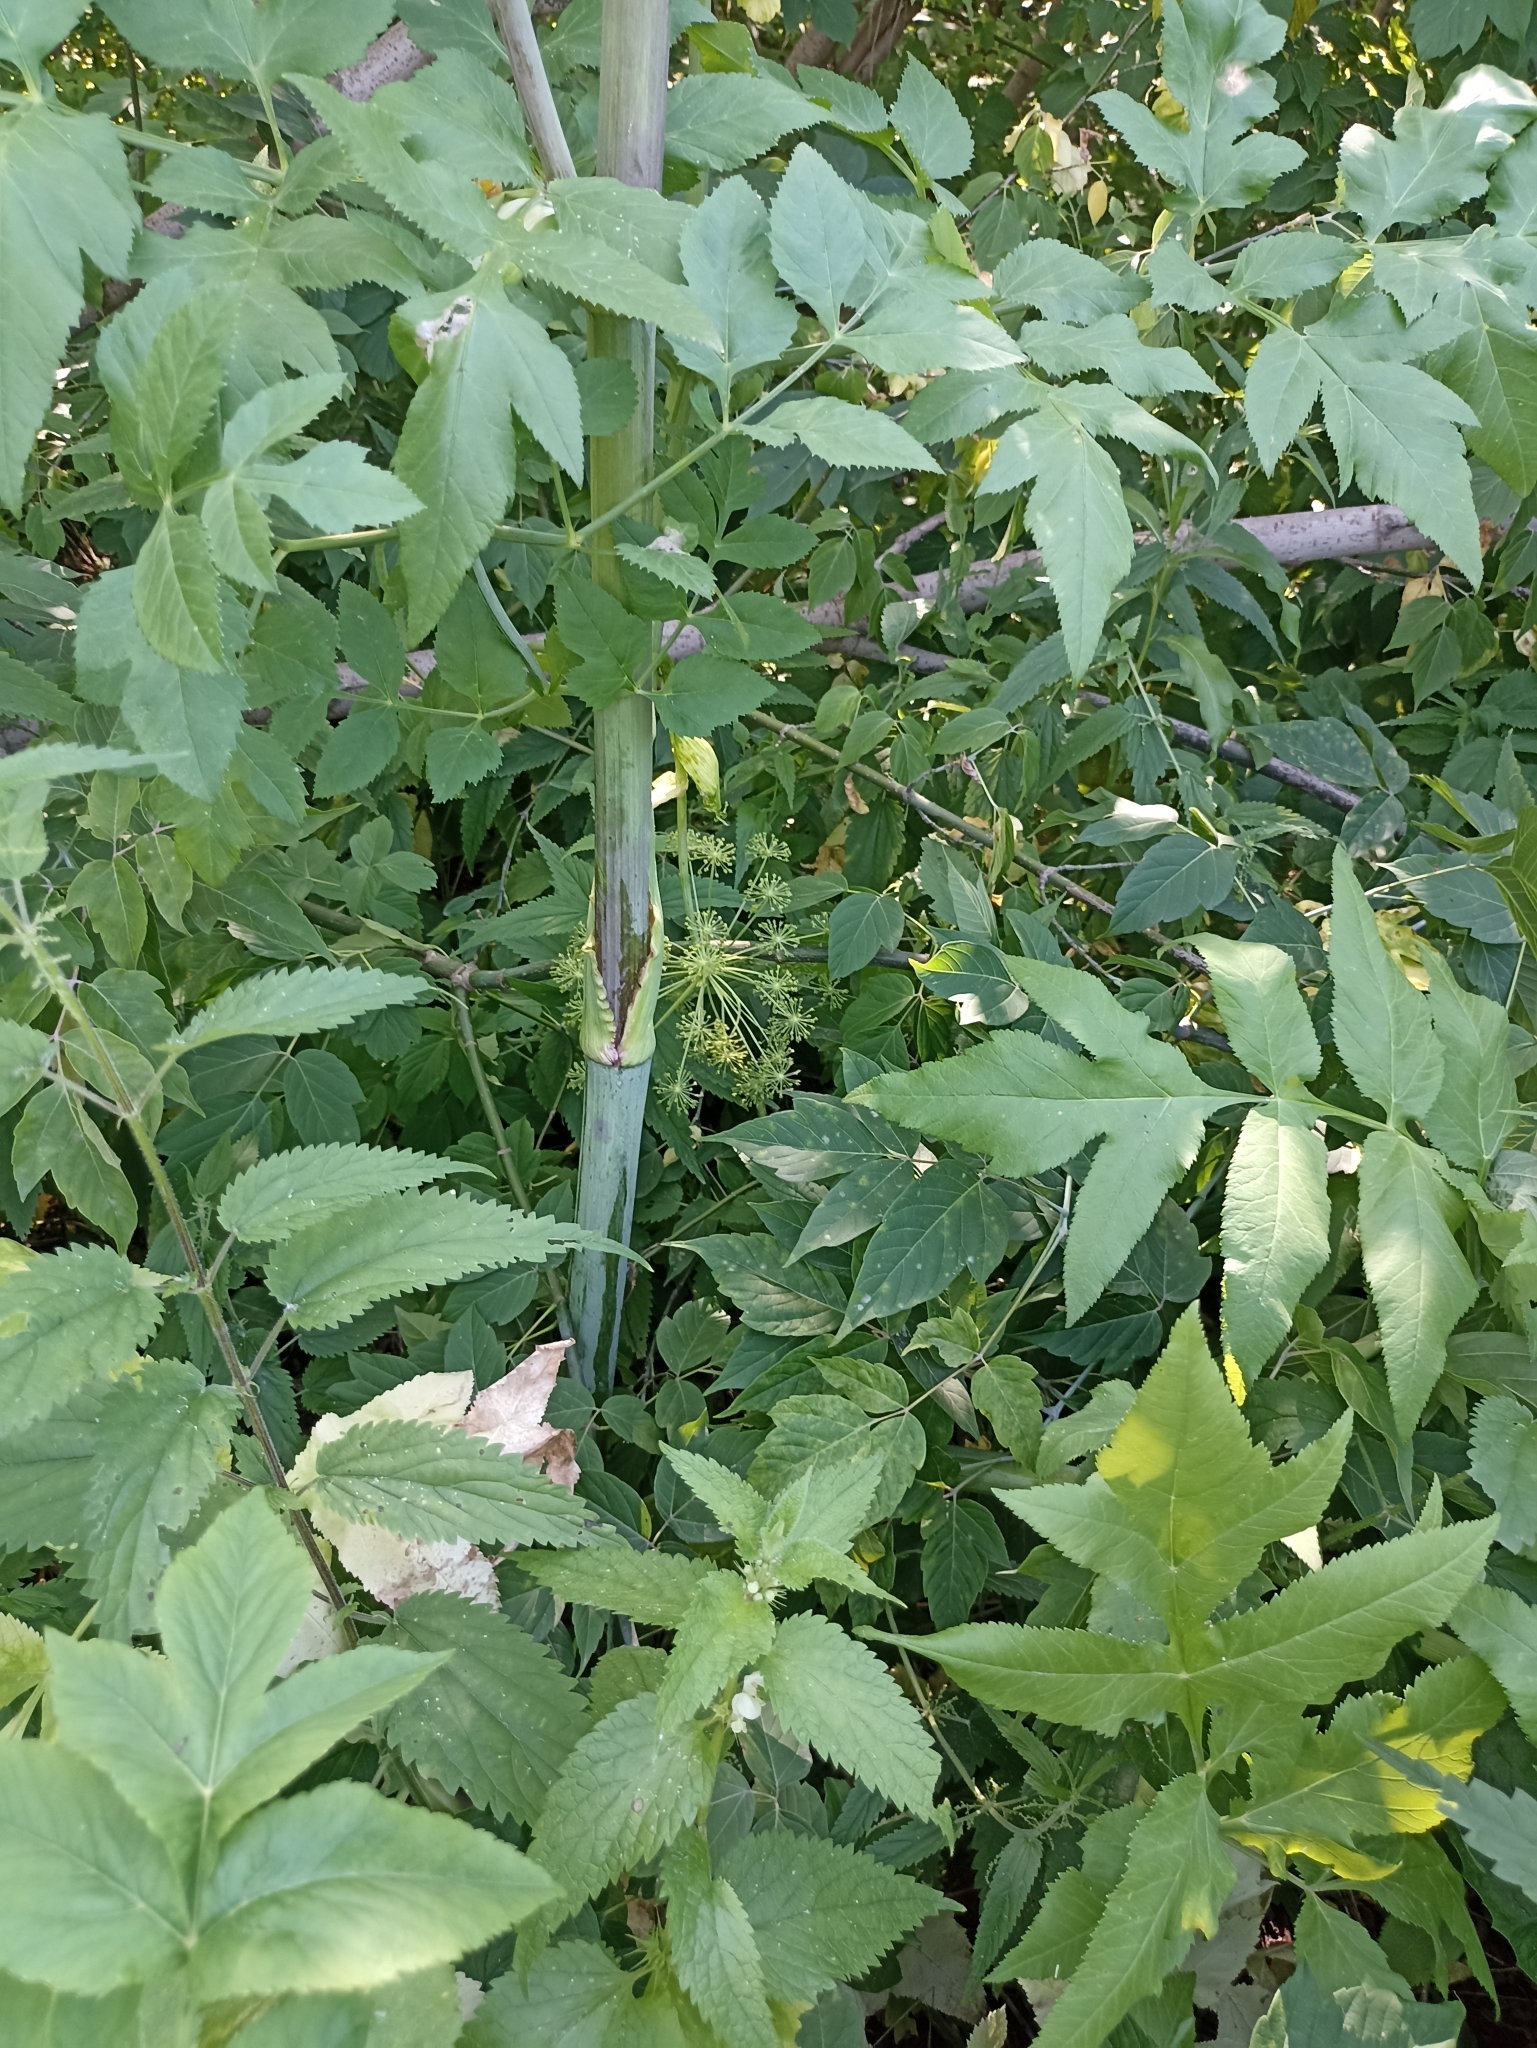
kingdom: Plantae
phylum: Tracheophyta
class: Magnoliopsida
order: Apiales
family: Apiaceae
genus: Angelica
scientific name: Angelica decurrens
